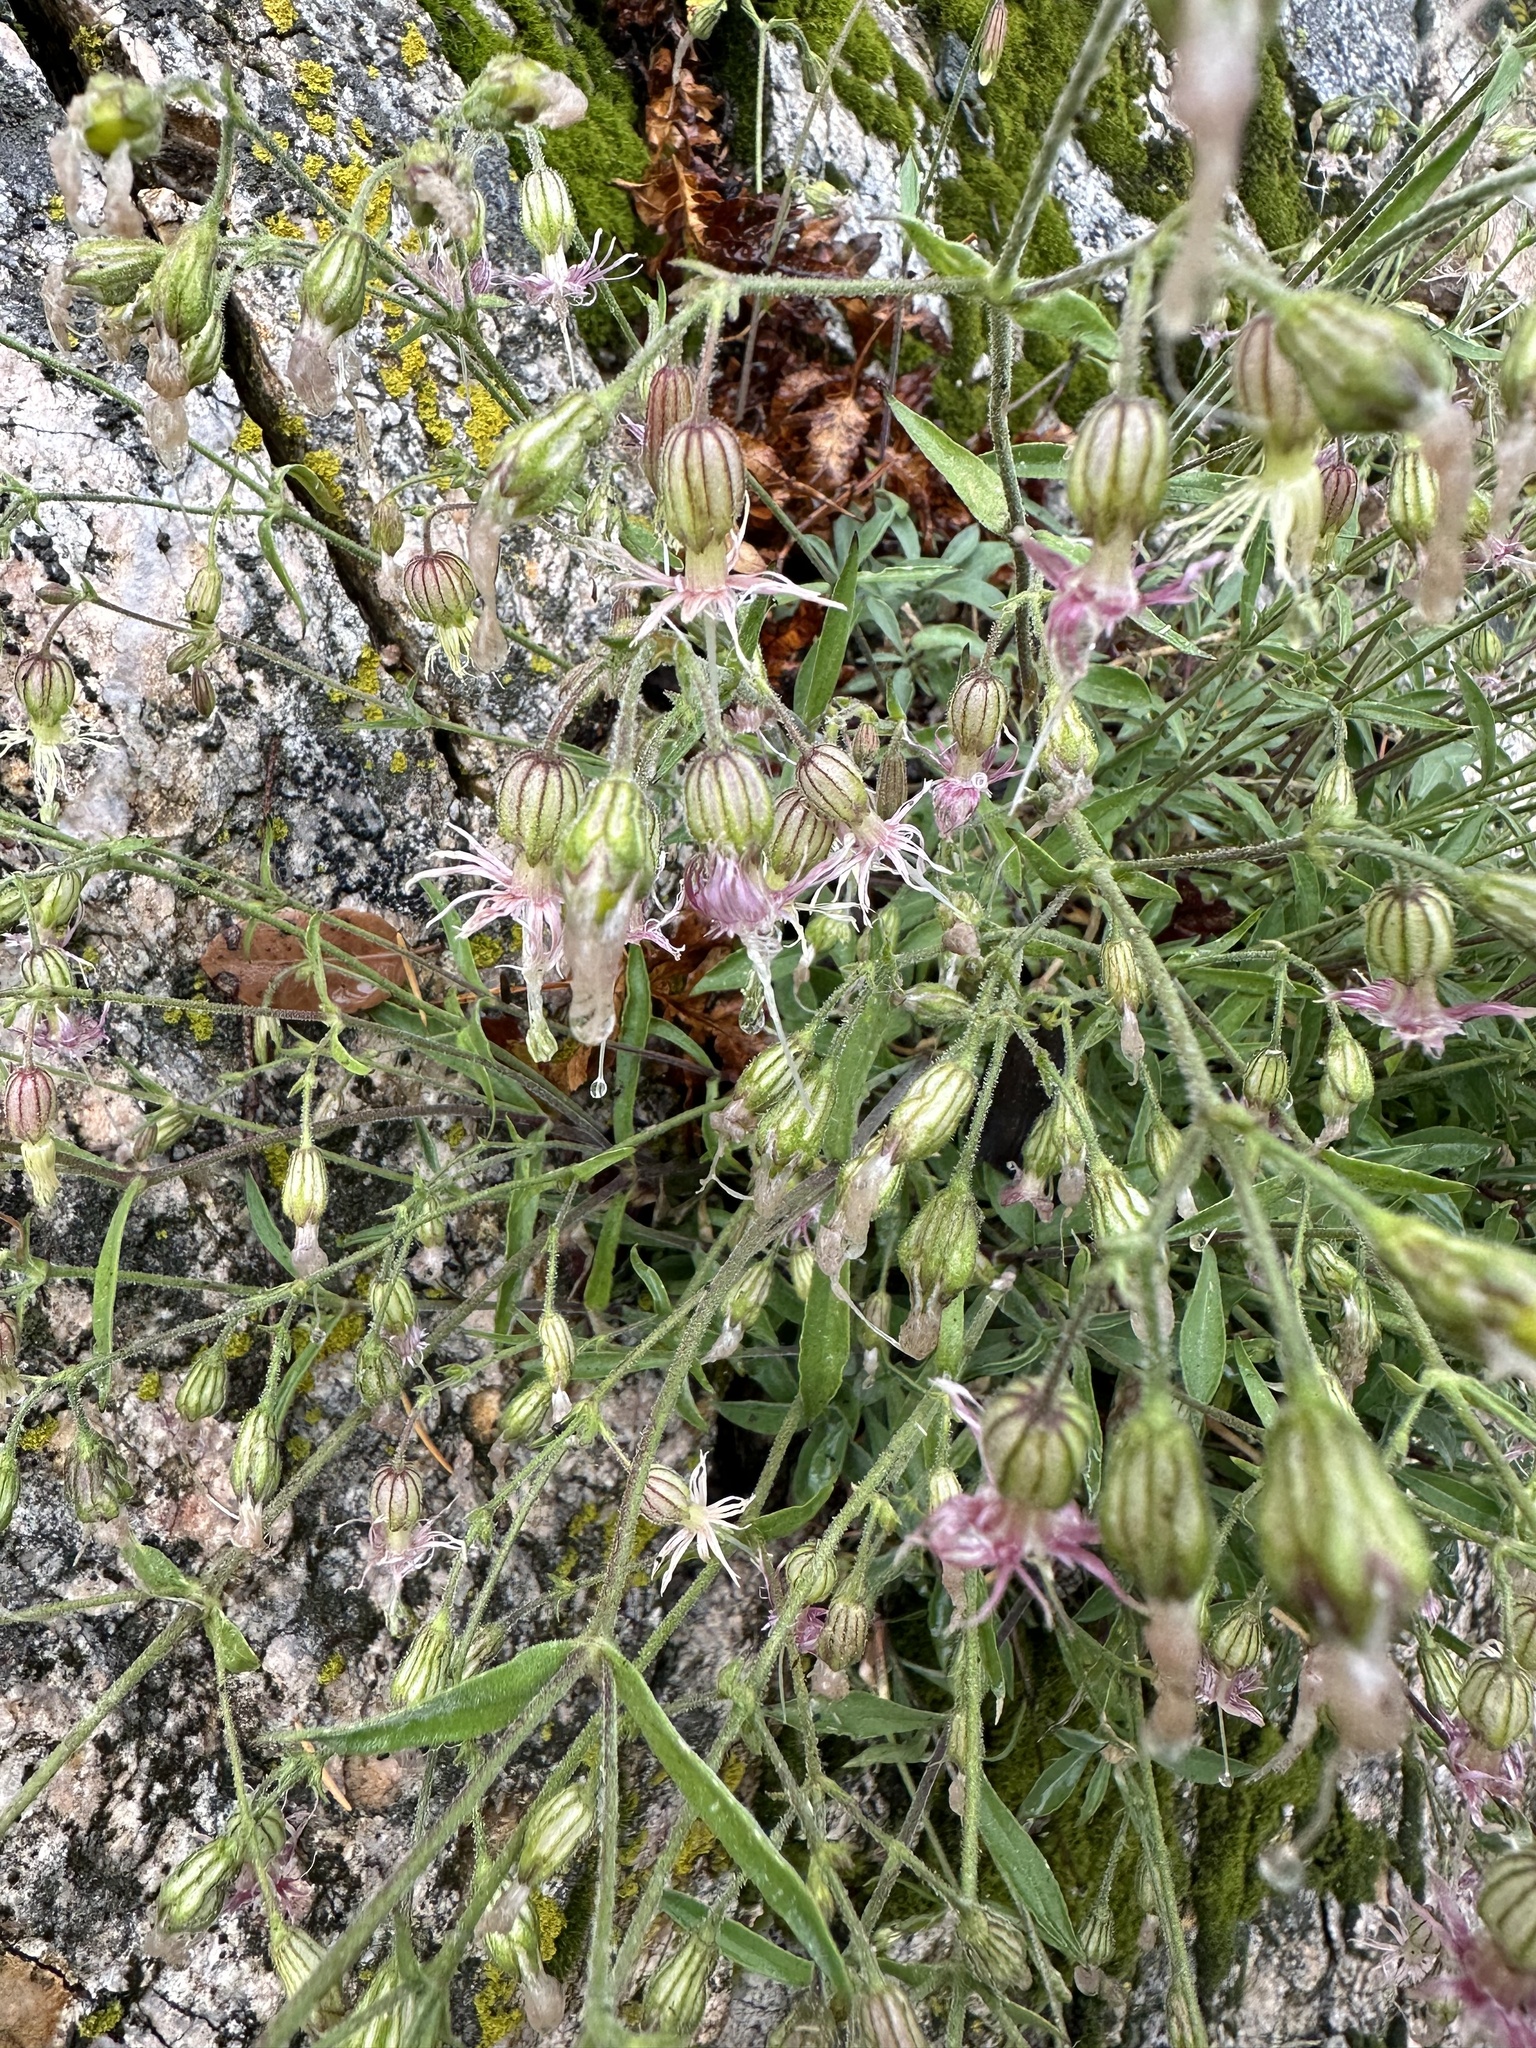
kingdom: Plantae
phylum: Tracheophyta
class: Magnoliopsida
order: Caryophyllales
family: Caryophyllaceae
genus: Silene
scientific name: Silene lemmonii
